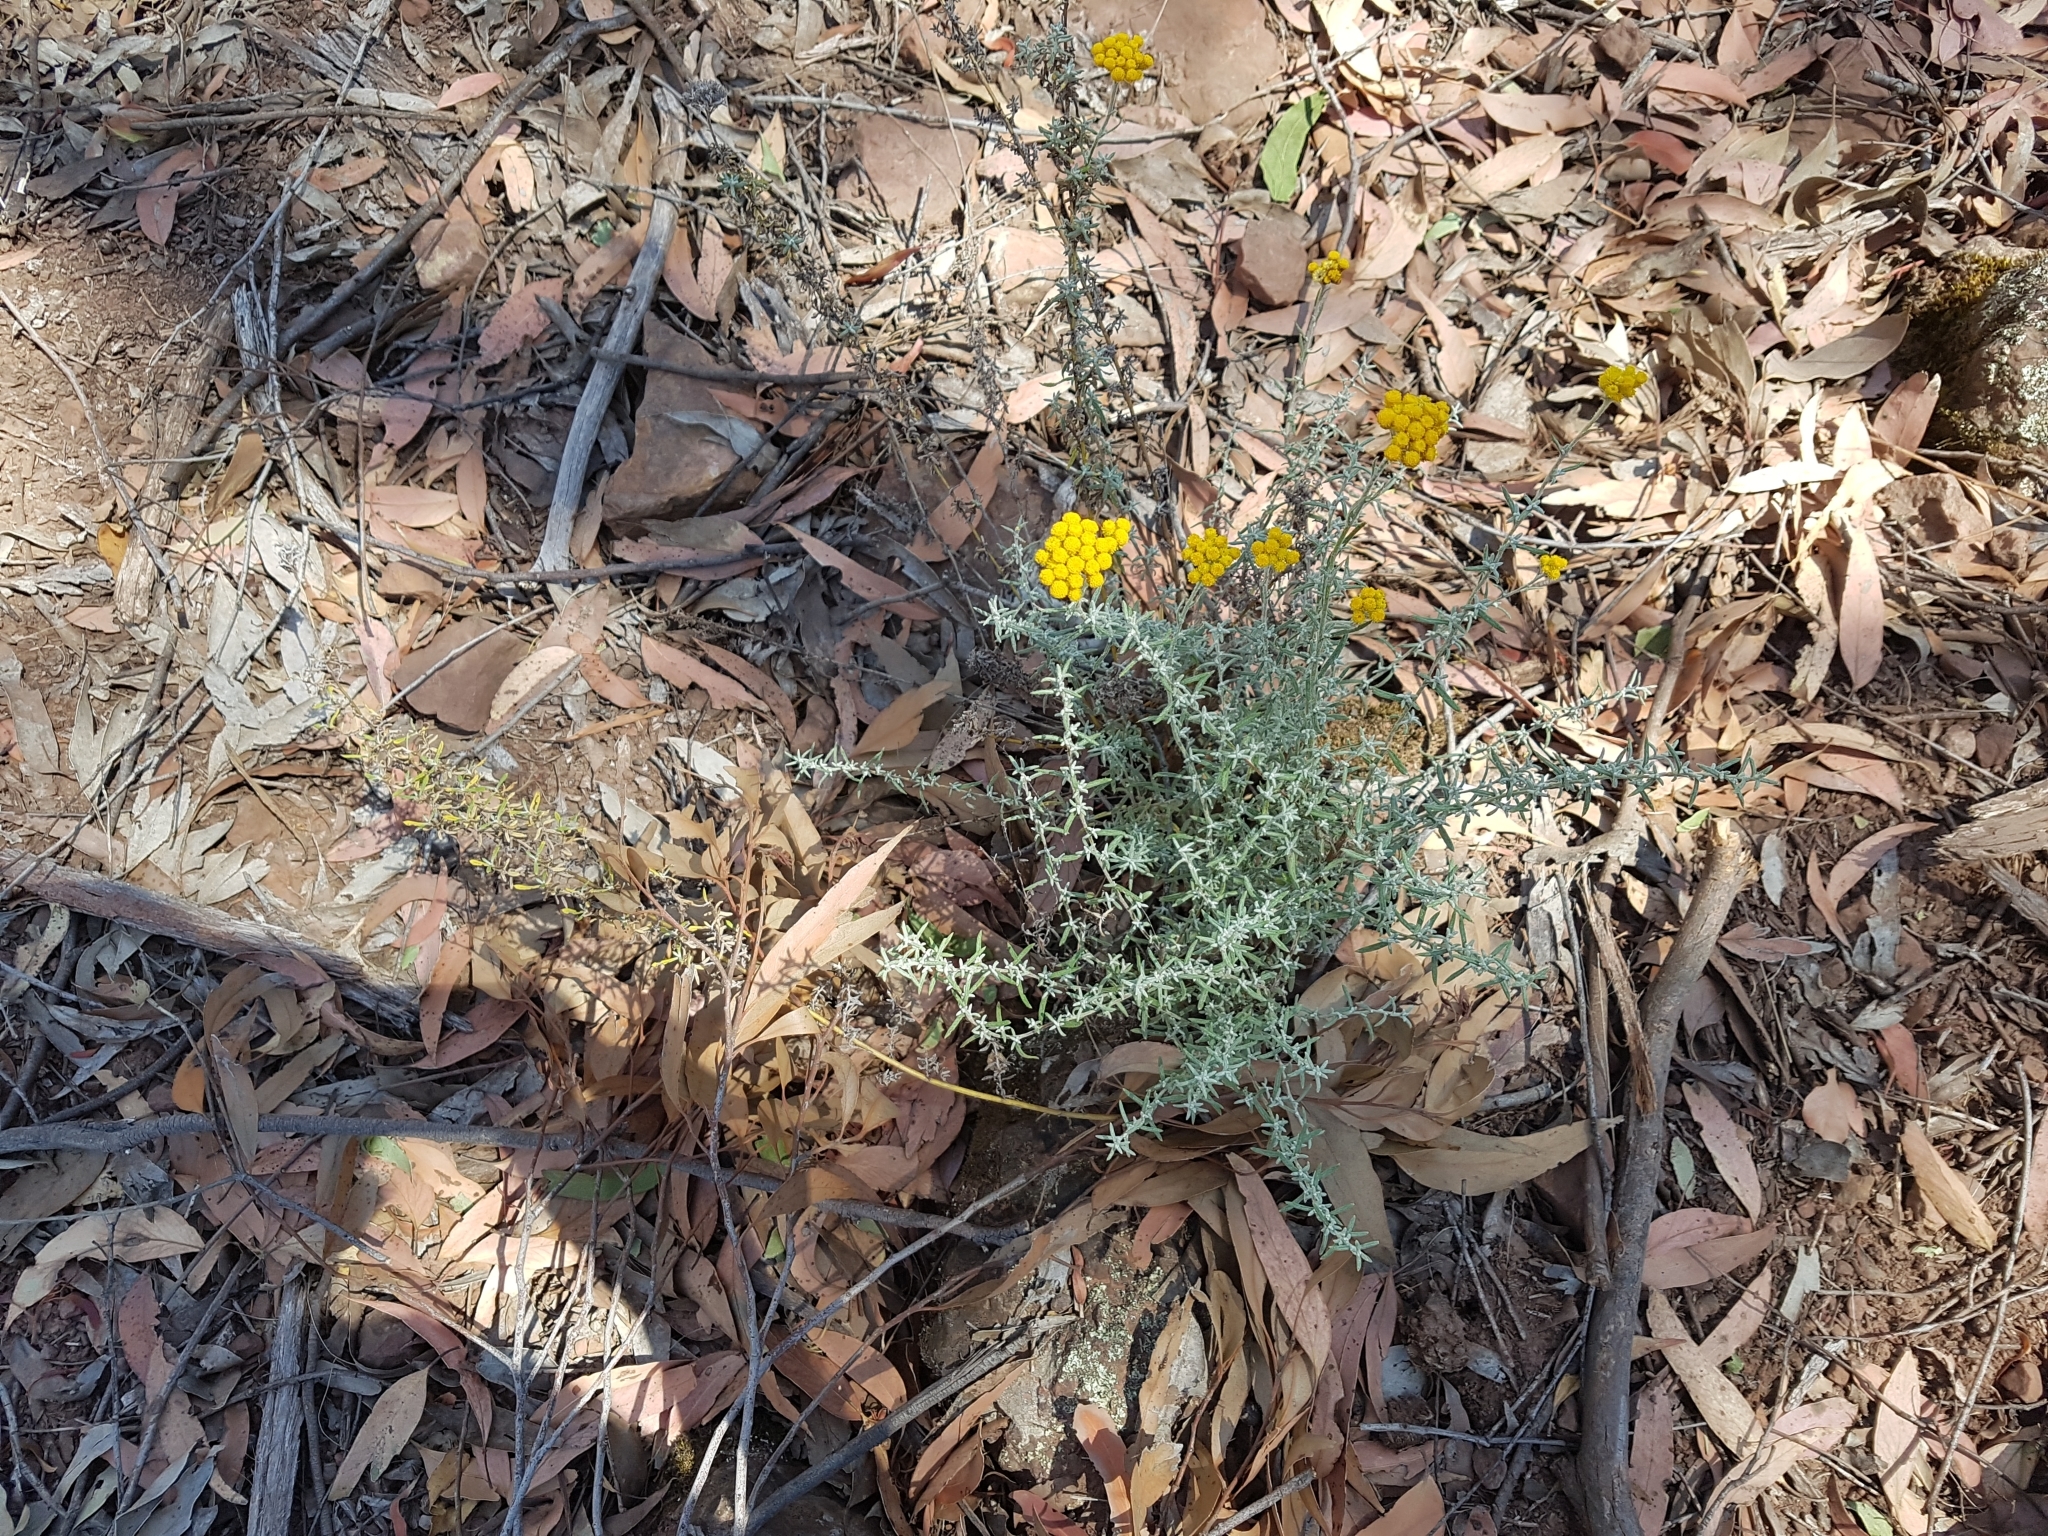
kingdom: Plantae
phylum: Tracheophyta
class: Magnoliopsida
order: Asterales
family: Asteraceae
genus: Chrysocephalum
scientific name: Chrysocephalum semipapposum
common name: Clustered everlasting
